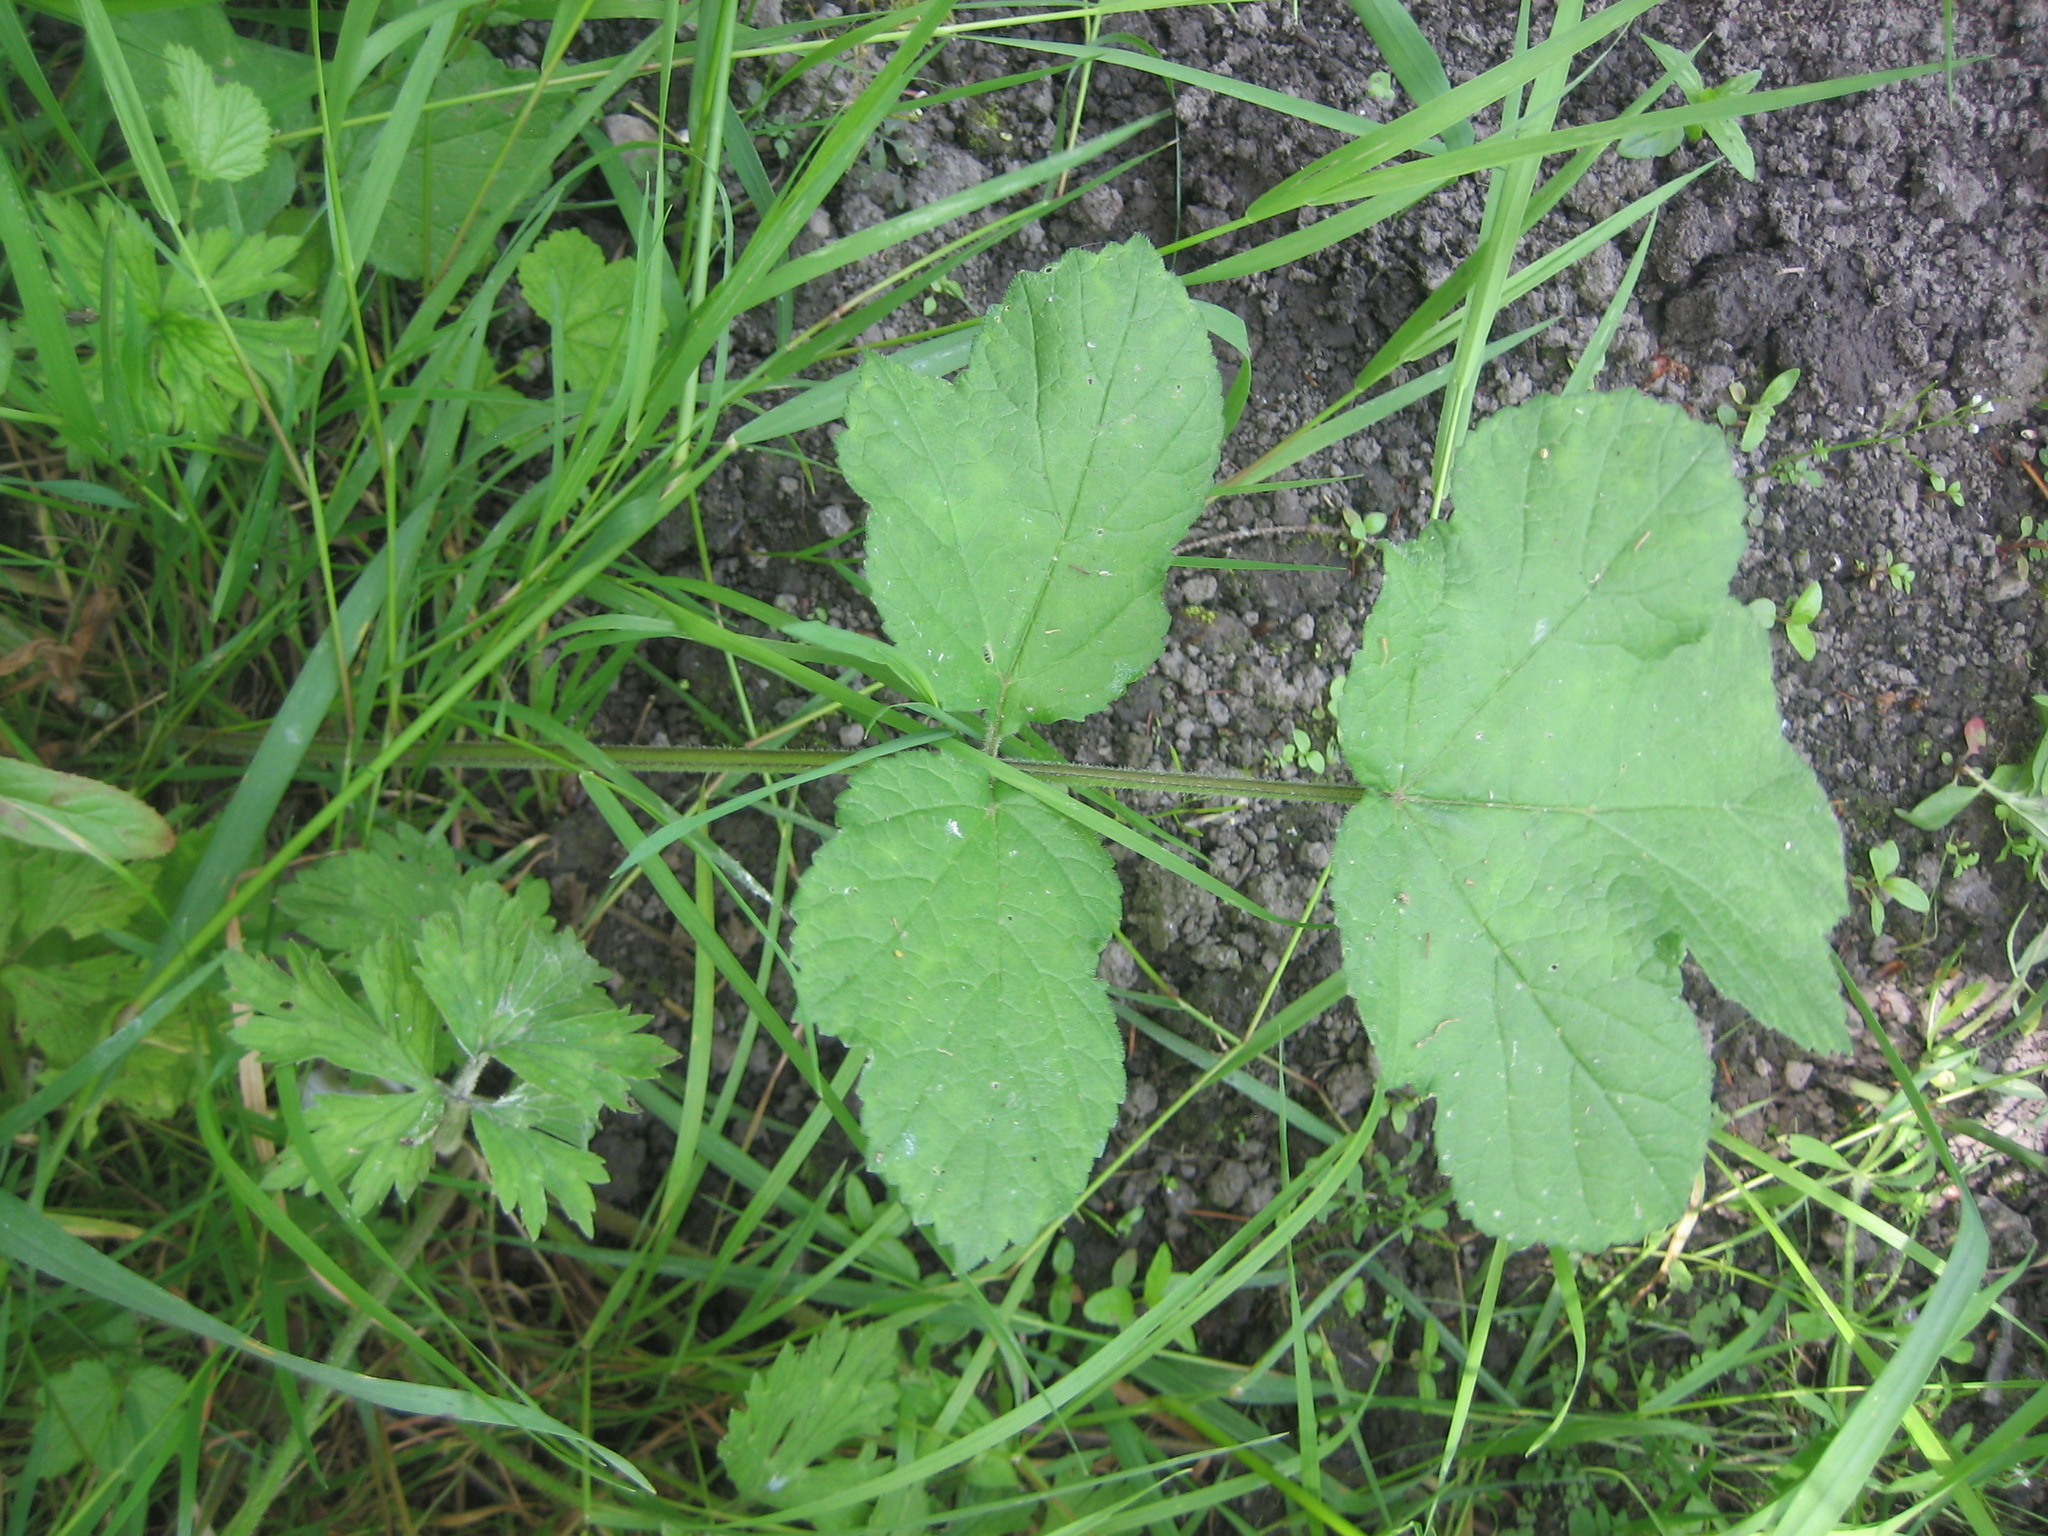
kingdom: Plantae
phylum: Tracheophyta
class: Magnoliopsida
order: Apiales
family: Apiaceae
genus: Heracleum
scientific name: Heracleum sphondylium
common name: Hogweed
